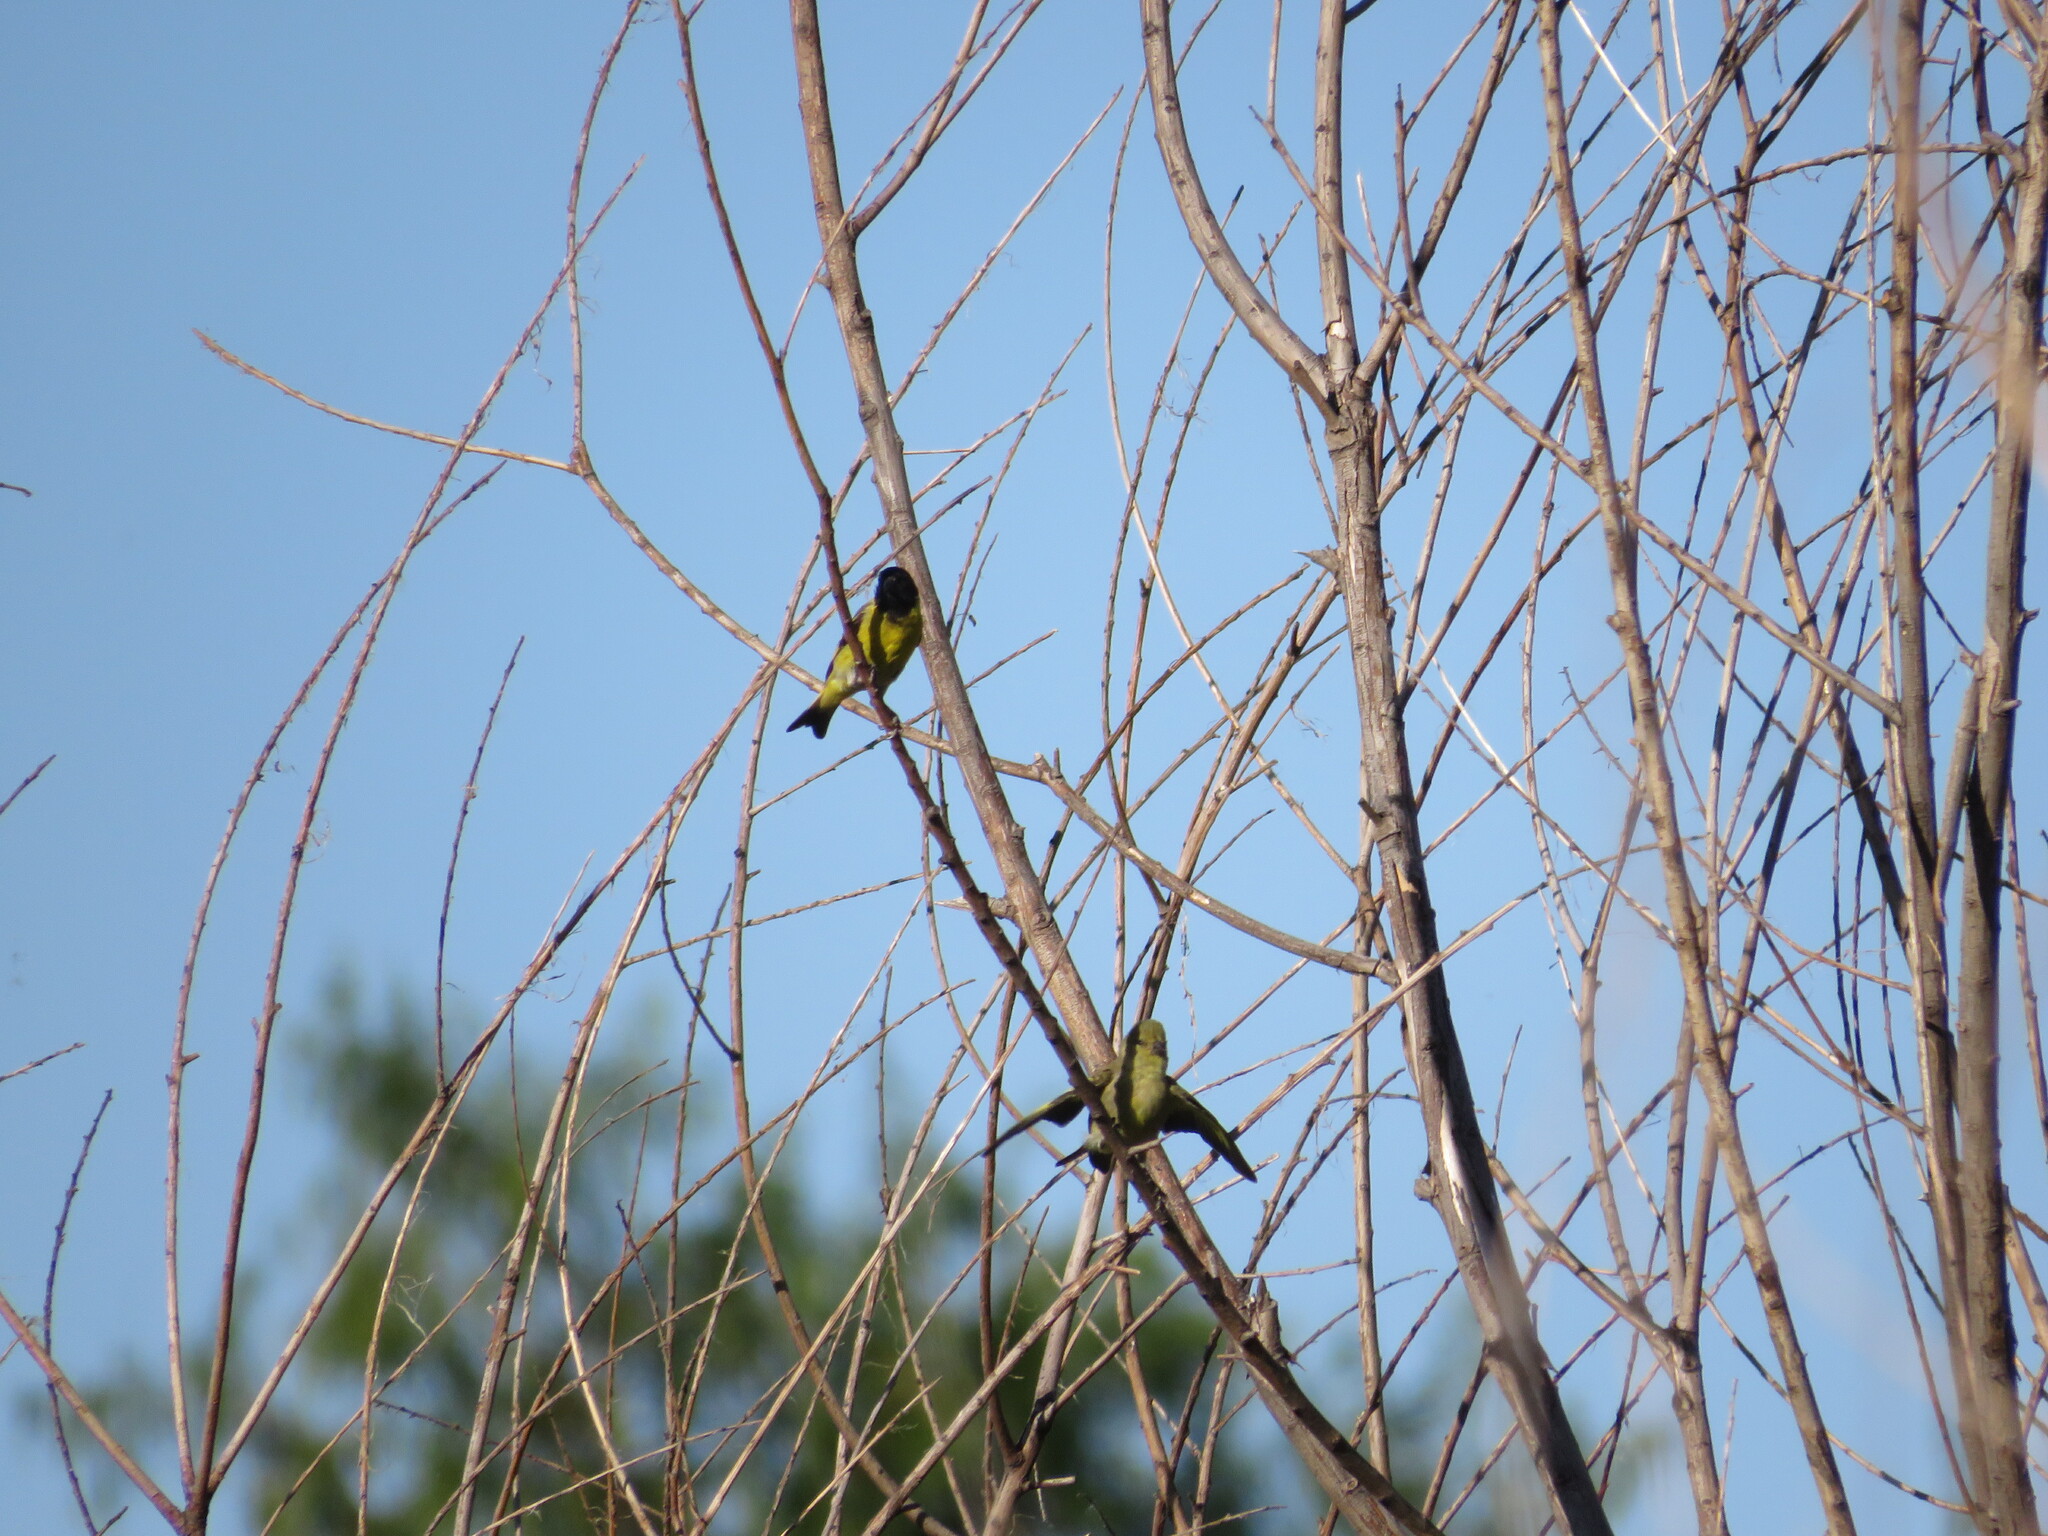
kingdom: Animalia
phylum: Chordata
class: Aves
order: Passeriformes
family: Fringillidae
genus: Spinus
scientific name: Spinus magellanicus
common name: Hooded siskin
